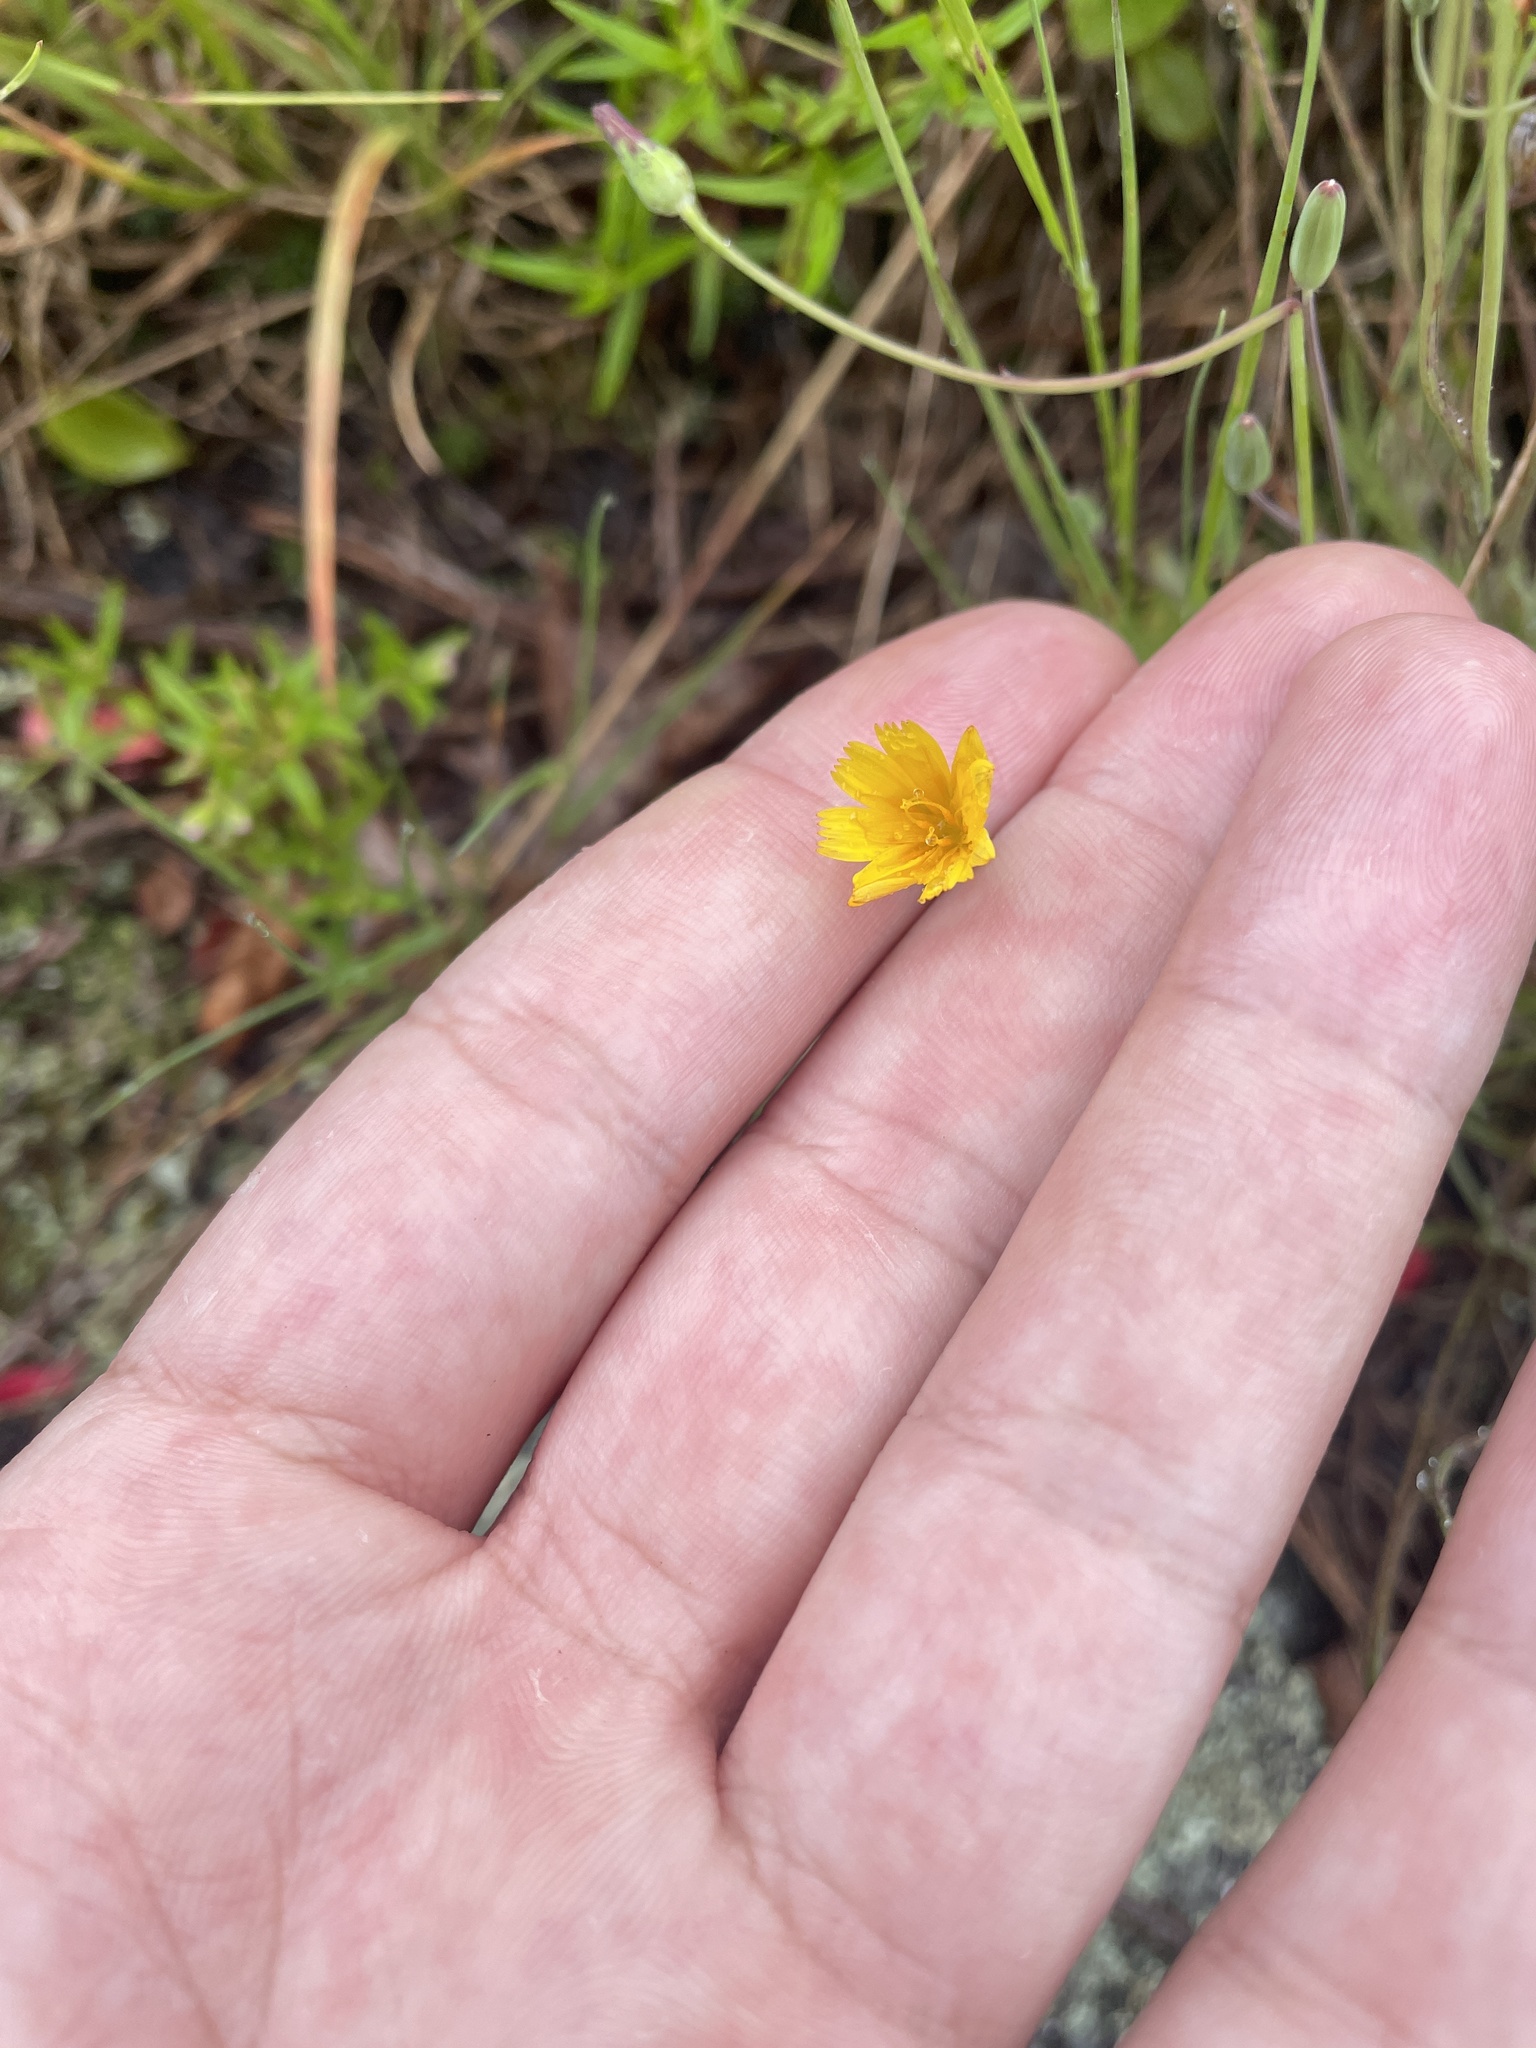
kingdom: Plantae
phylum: Tracheophyta
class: Magnoliopsida
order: Asterales
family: Asteraceae
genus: Krigia
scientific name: Krigia montana
